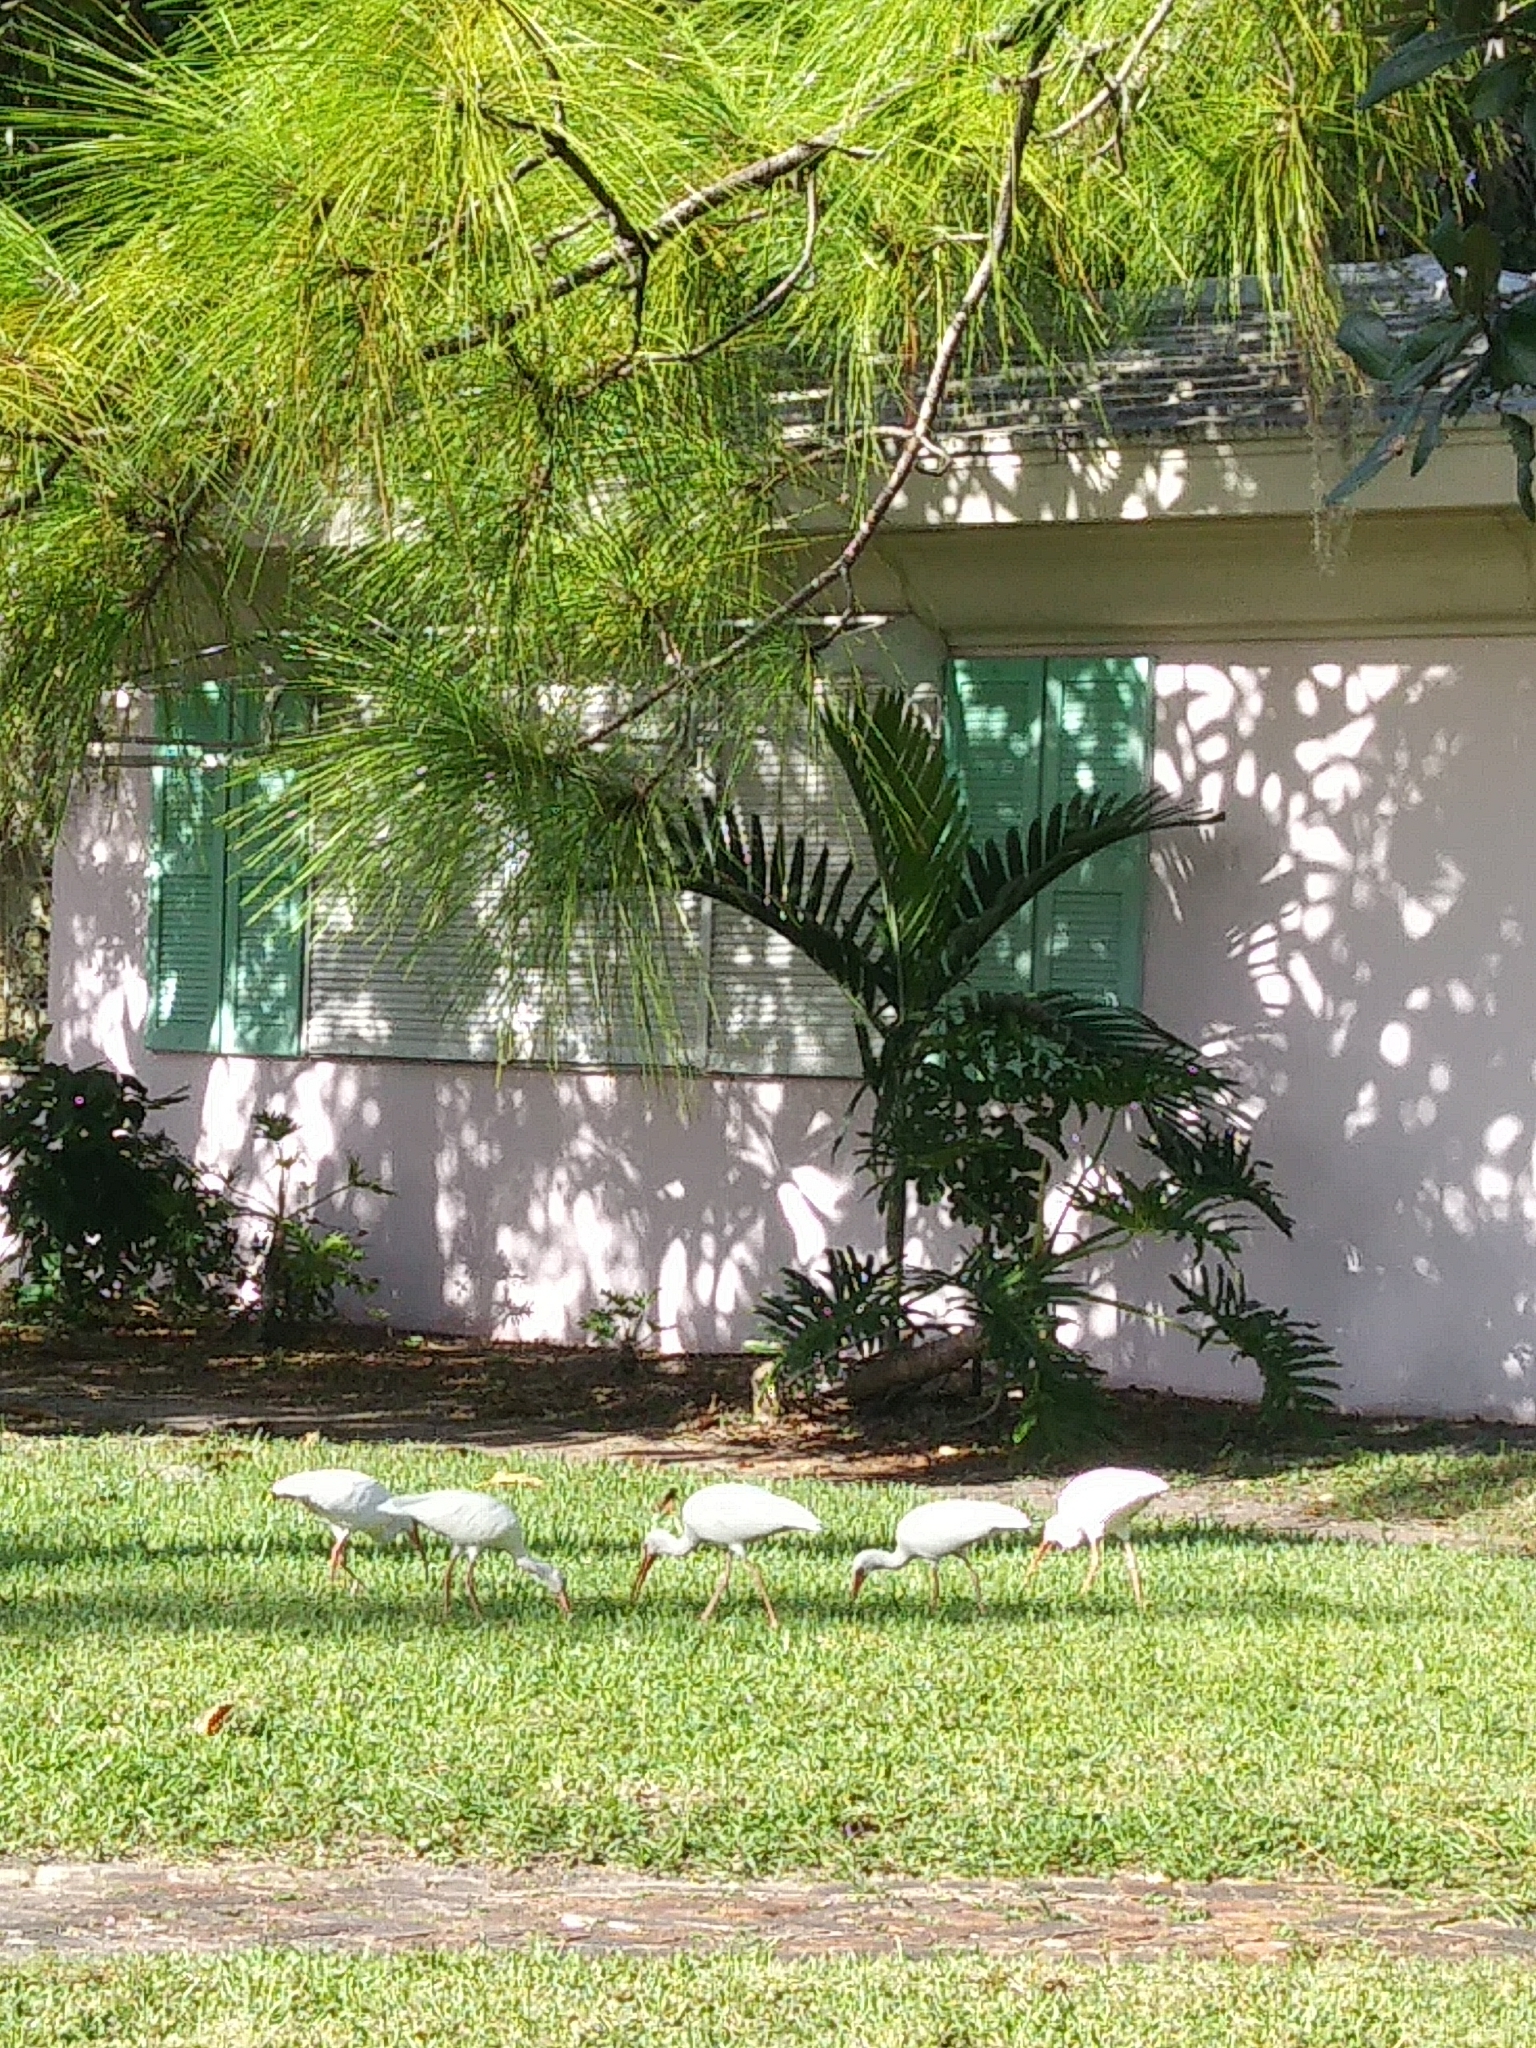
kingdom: Animalia
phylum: Chordata
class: Aves
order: Pelecaniformes
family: Threskiornithidae
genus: Eudocimus
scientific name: Eudocimus albus
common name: White ibis
